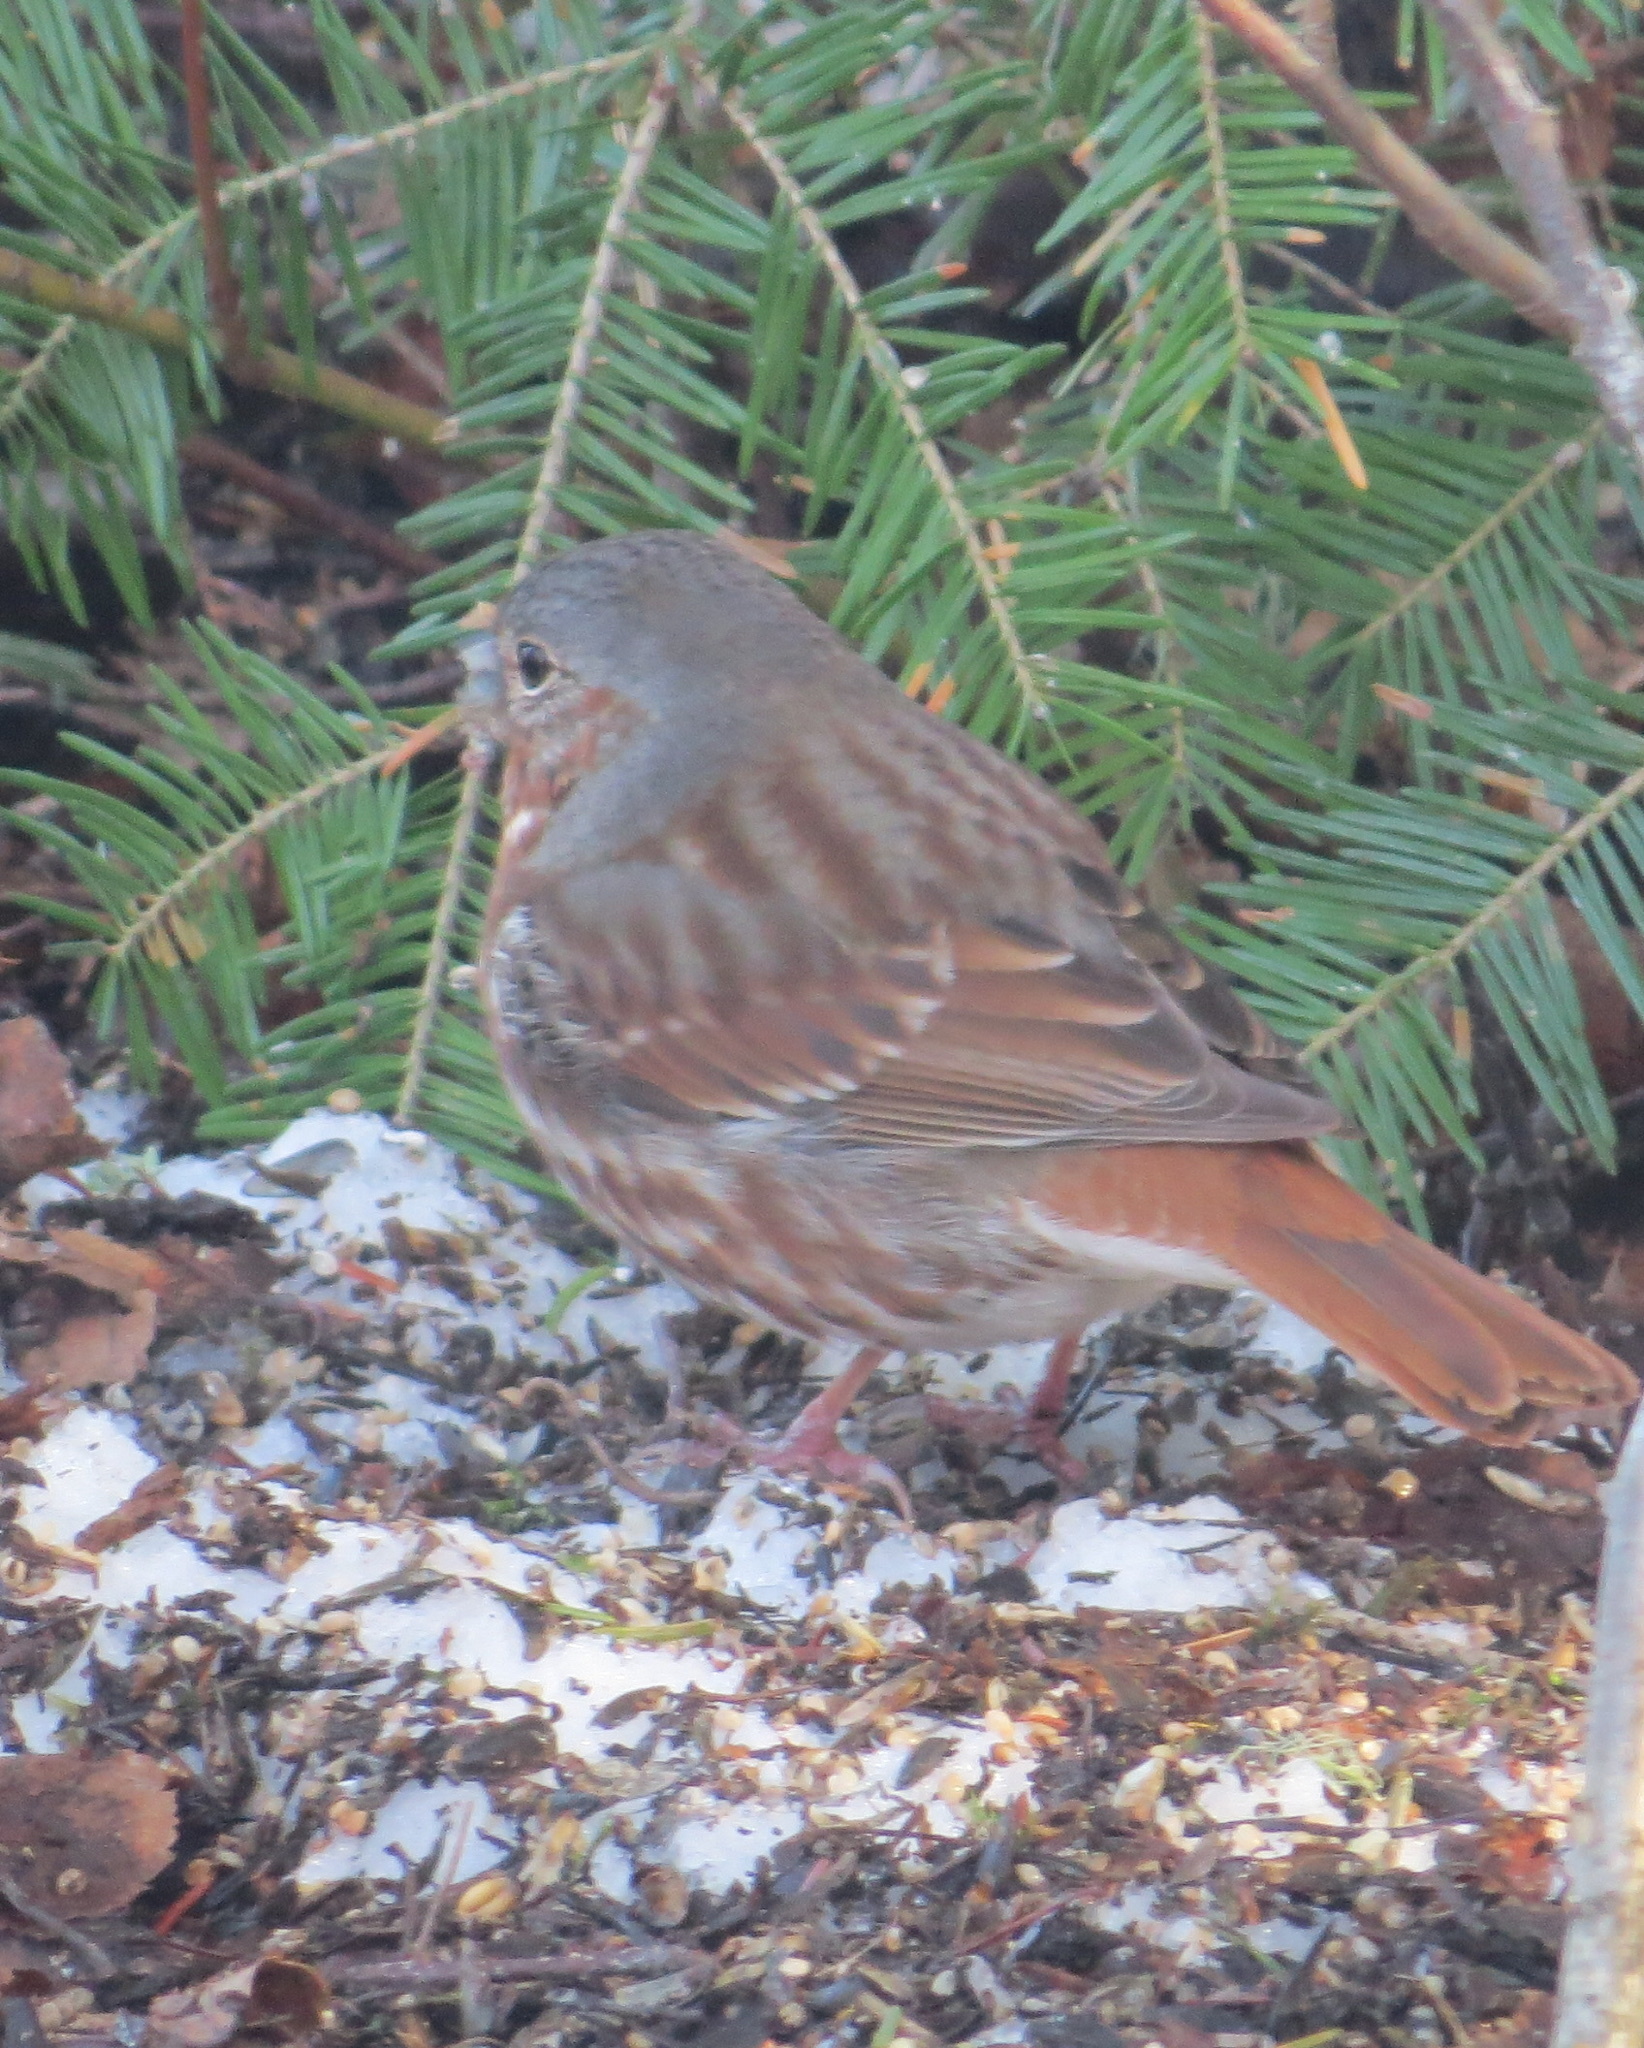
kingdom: Animalia
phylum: Chordata
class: Aves
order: Passeriformes
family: Passerellidae
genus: Passerella
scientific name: Passerella iliaca
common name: Fox sparrow
